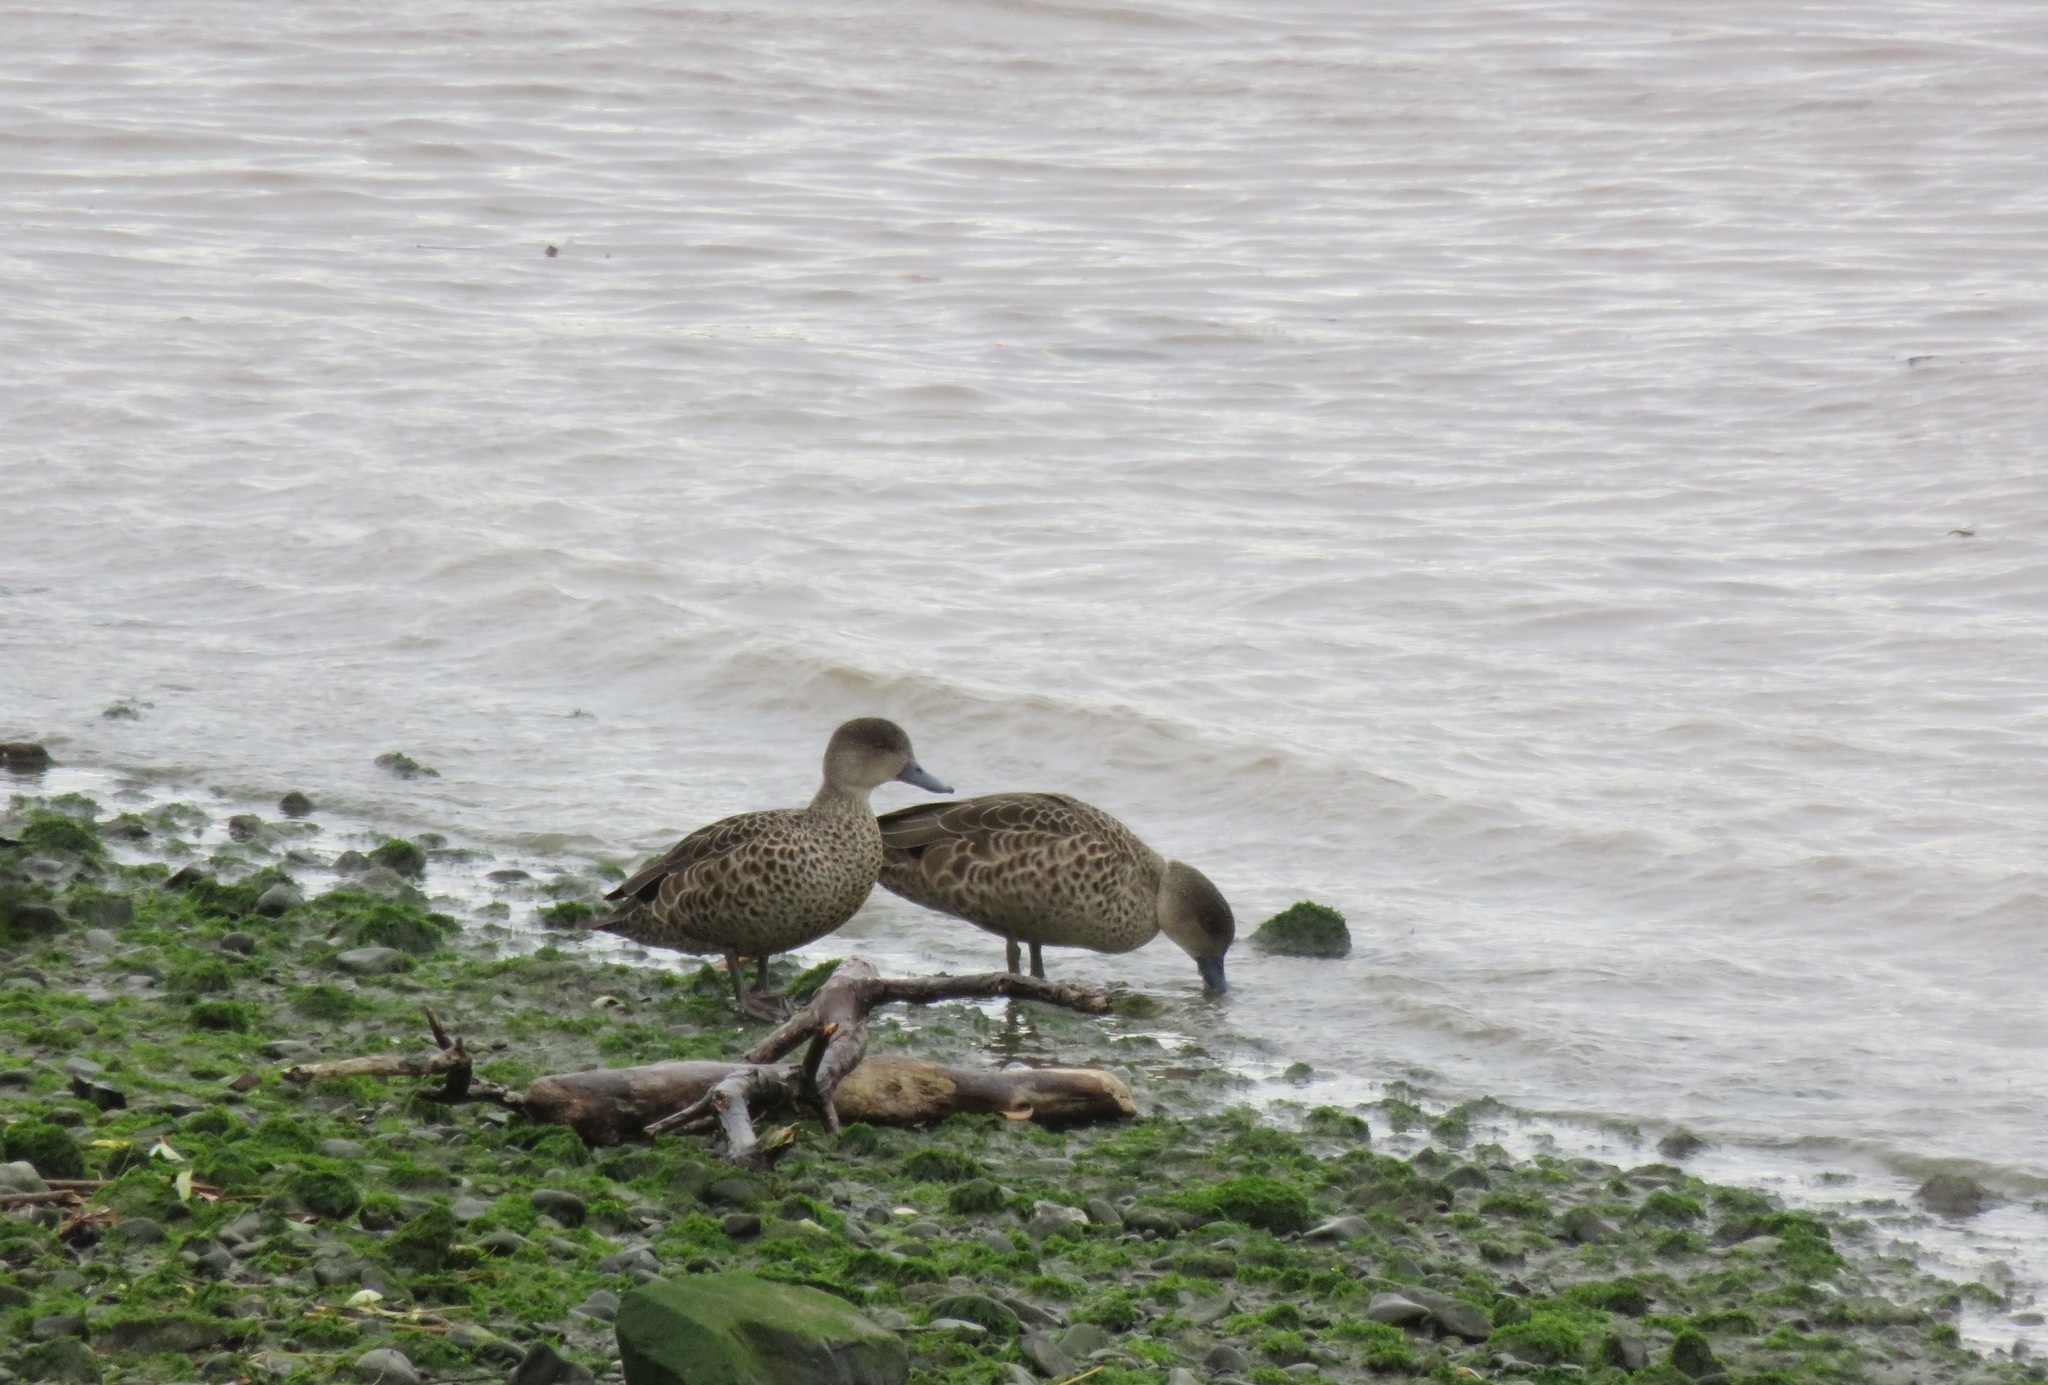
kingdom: Animalia
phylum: Chordata
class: Aves
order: Anseriformes
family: Anatidae
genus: Anas
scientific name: Anas gracilis
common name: Grey teal
